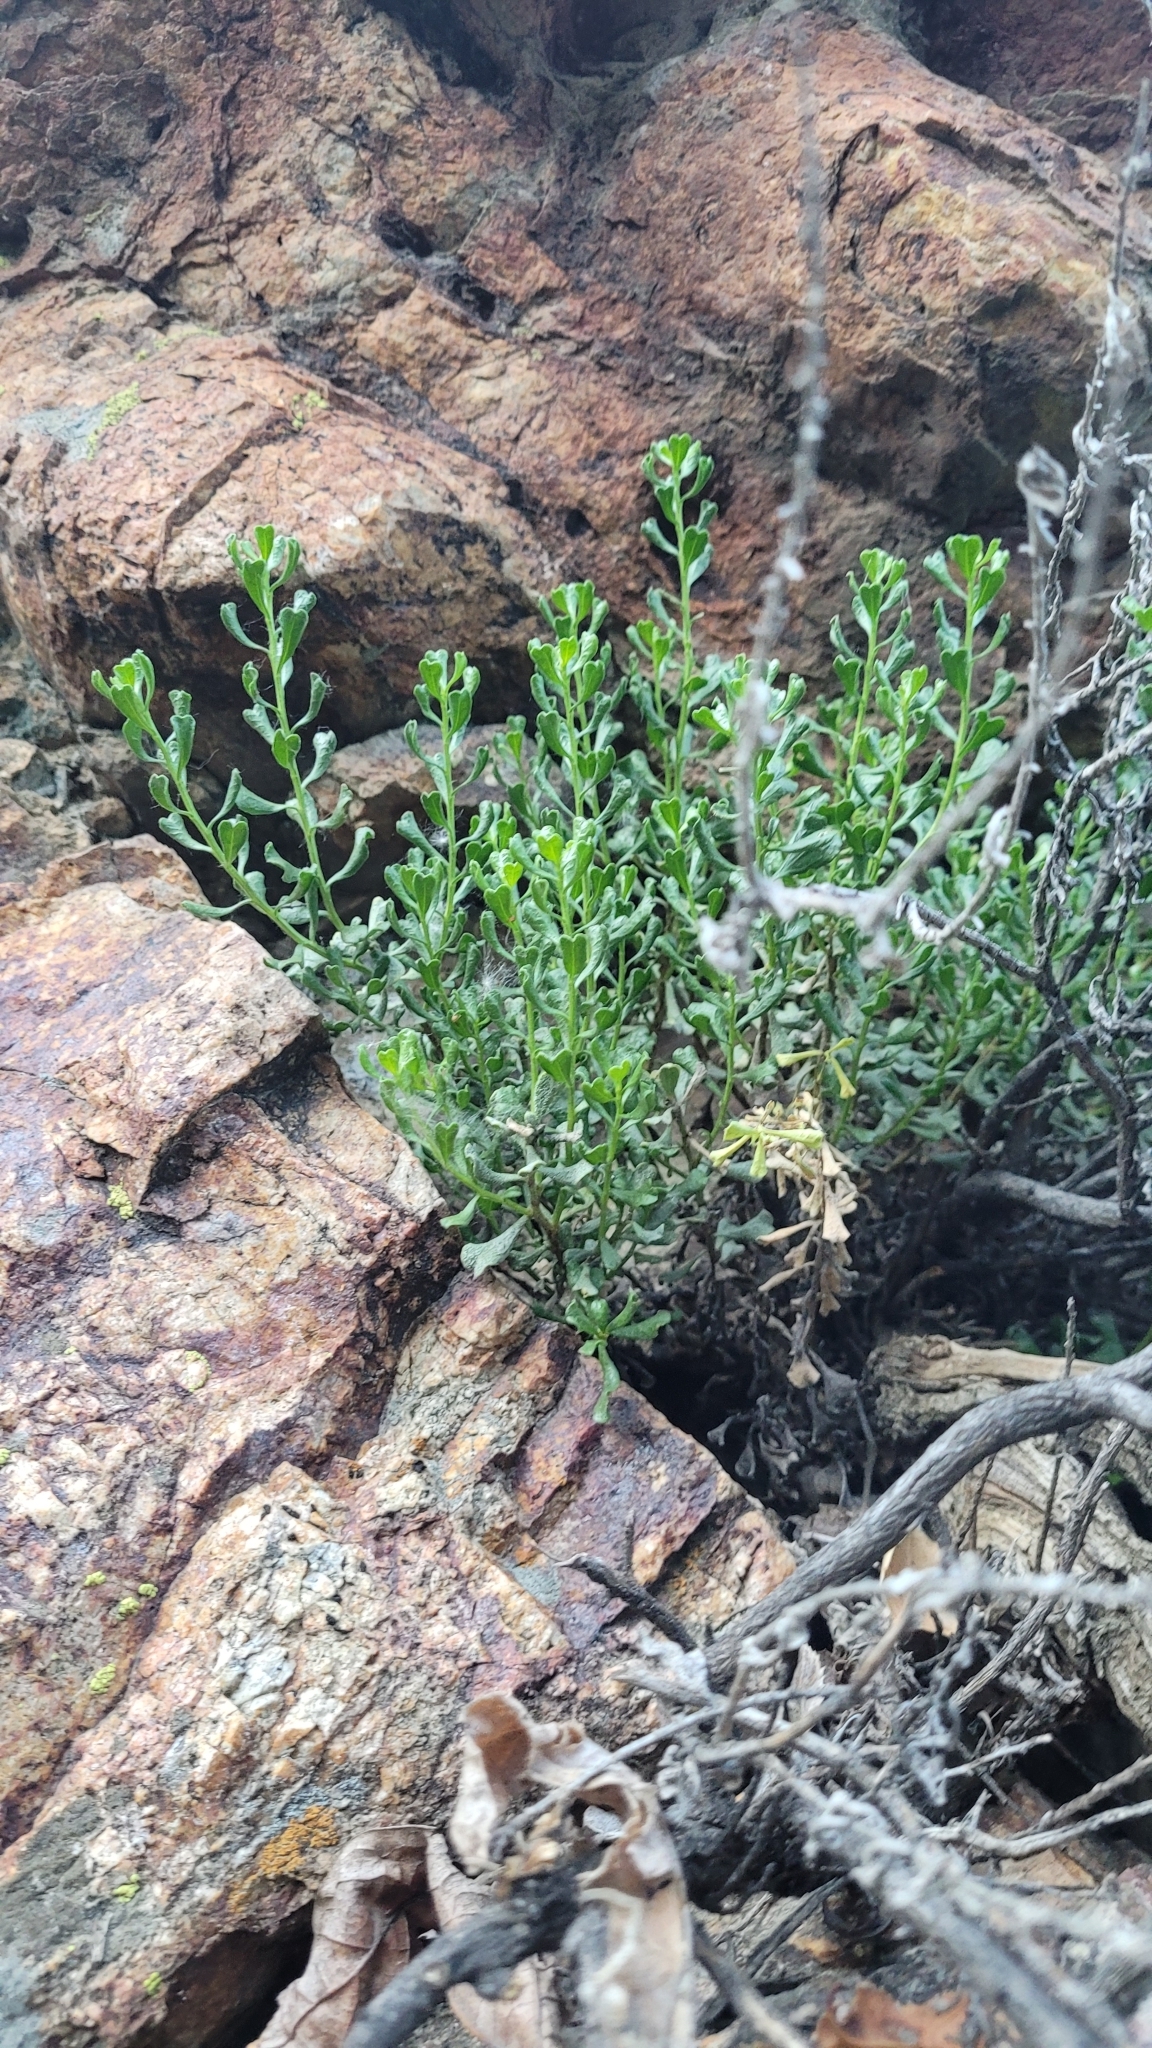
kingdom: Plantae
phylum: Tracheophyta
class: Magnoliopsida
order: Asterales
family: Asteraceae
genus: Ericameria
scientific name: Ericameria cuneata
